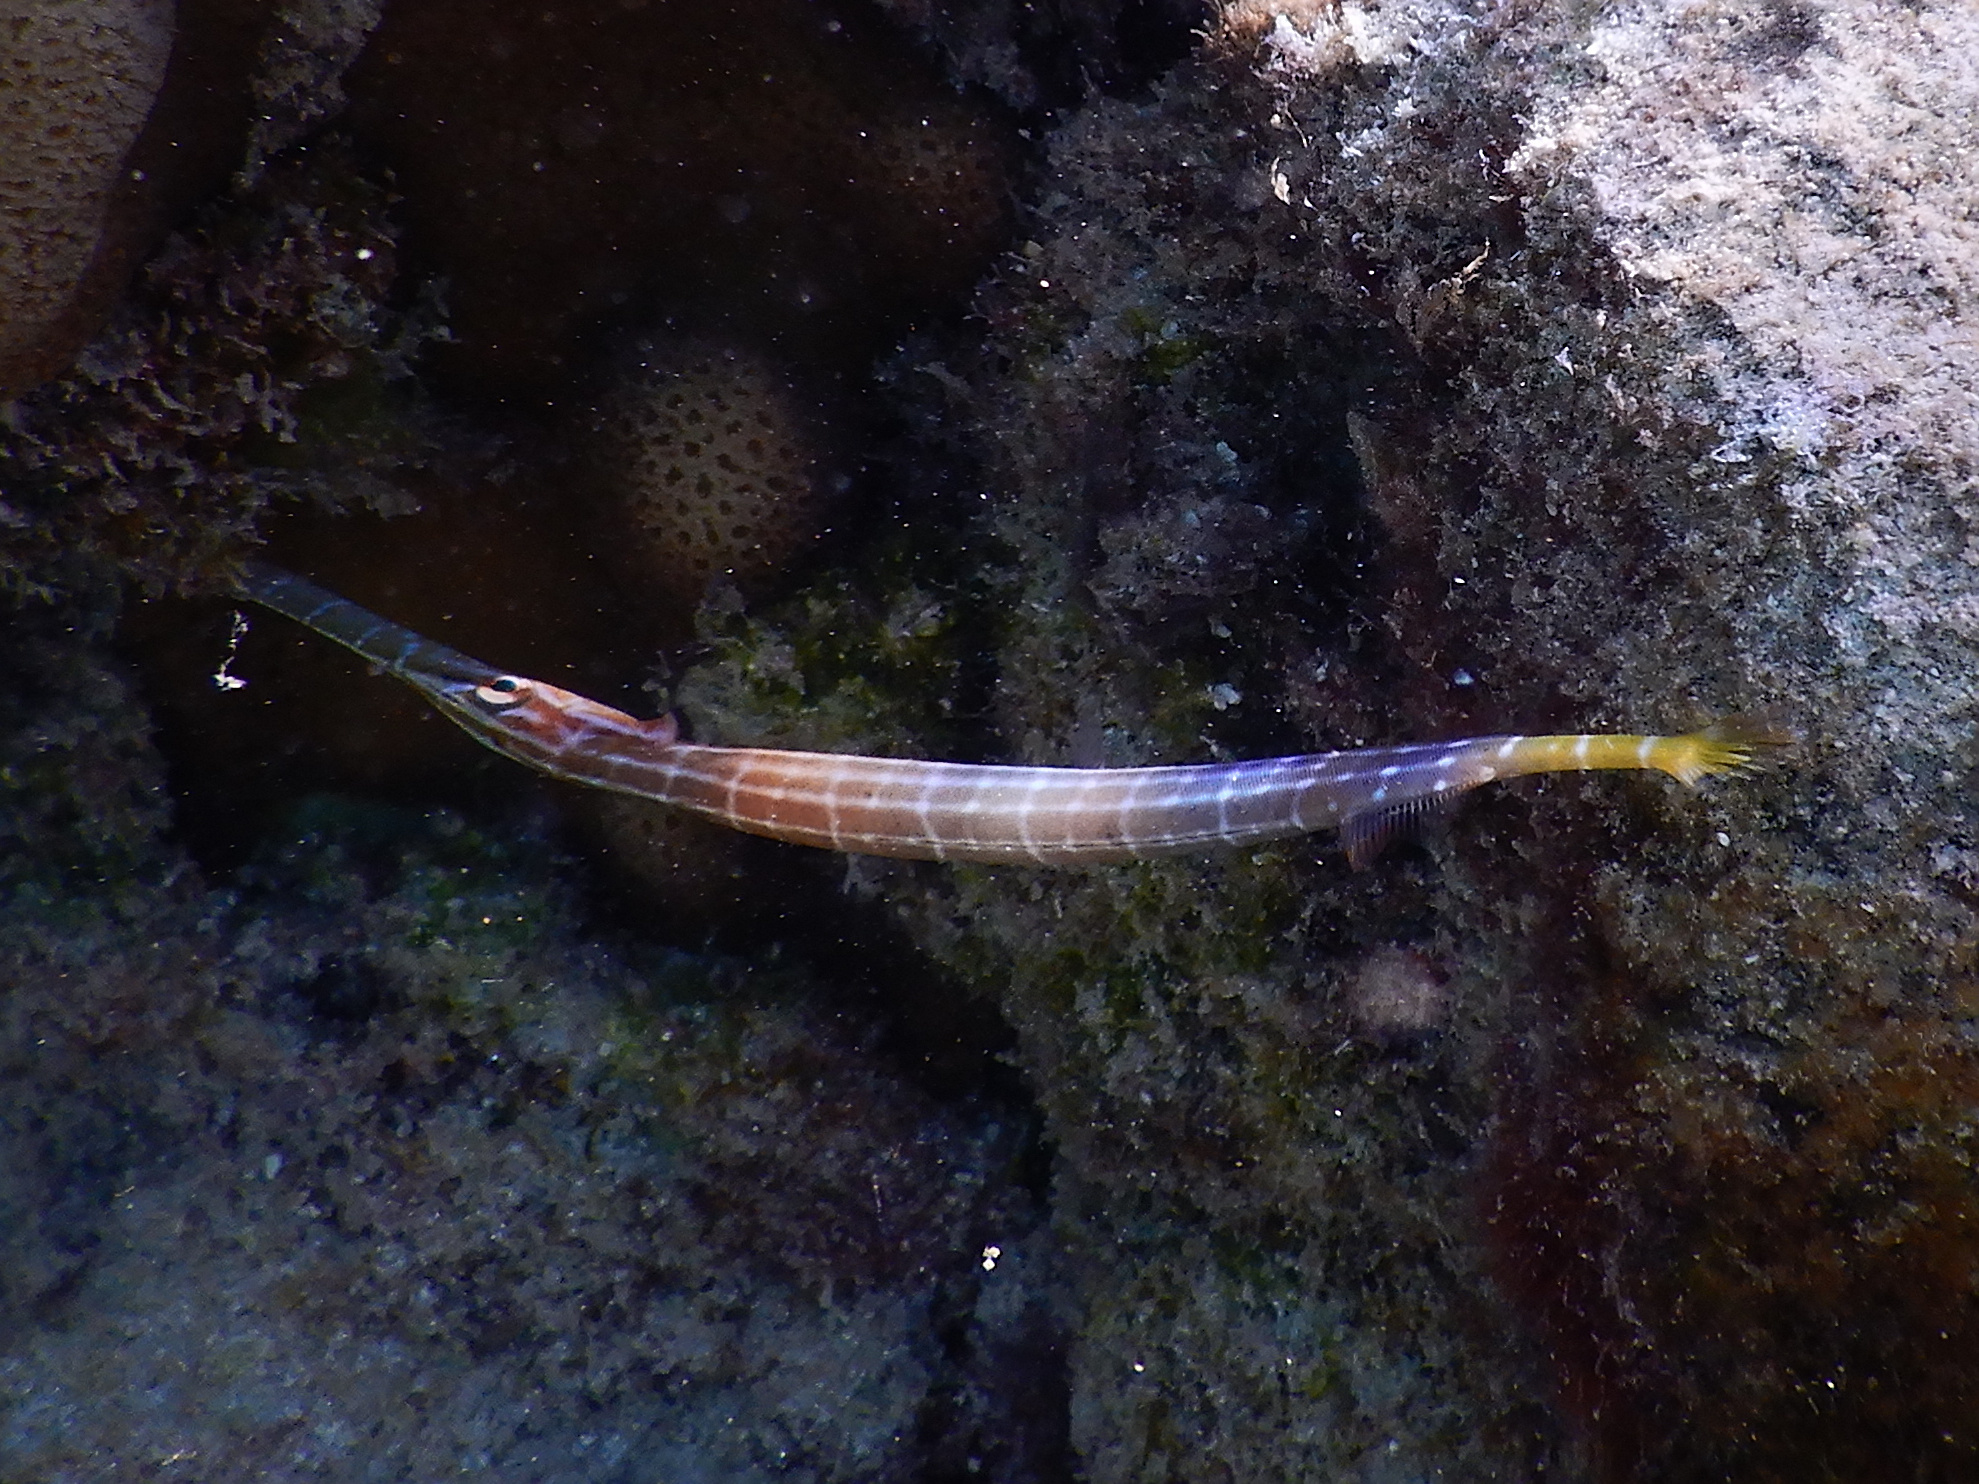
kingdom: Animalia
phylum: Chordata
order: Syngnathiformes
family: Aulostomidae
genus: Aulostomus
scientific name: Aulostomus chinensis
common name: Chinese trumpetfish
